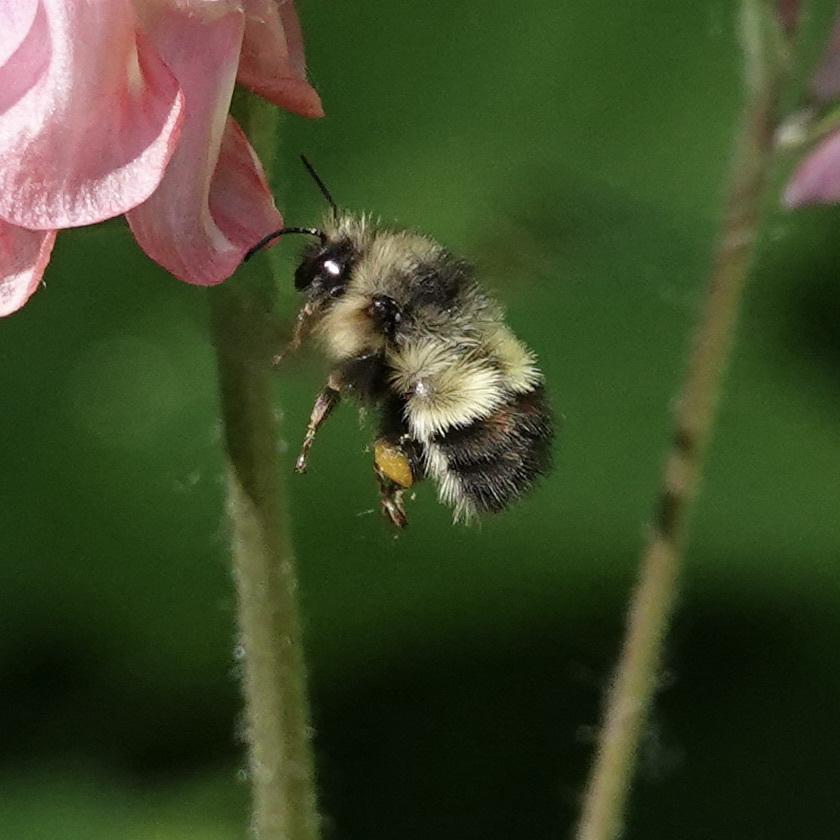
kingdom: Animalia
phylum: Arthropoda
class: Insecta
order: Hymenoptera
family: Apidae
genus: Bombus
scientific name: Bombus flavifrons
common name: Yellow head bumble bee
